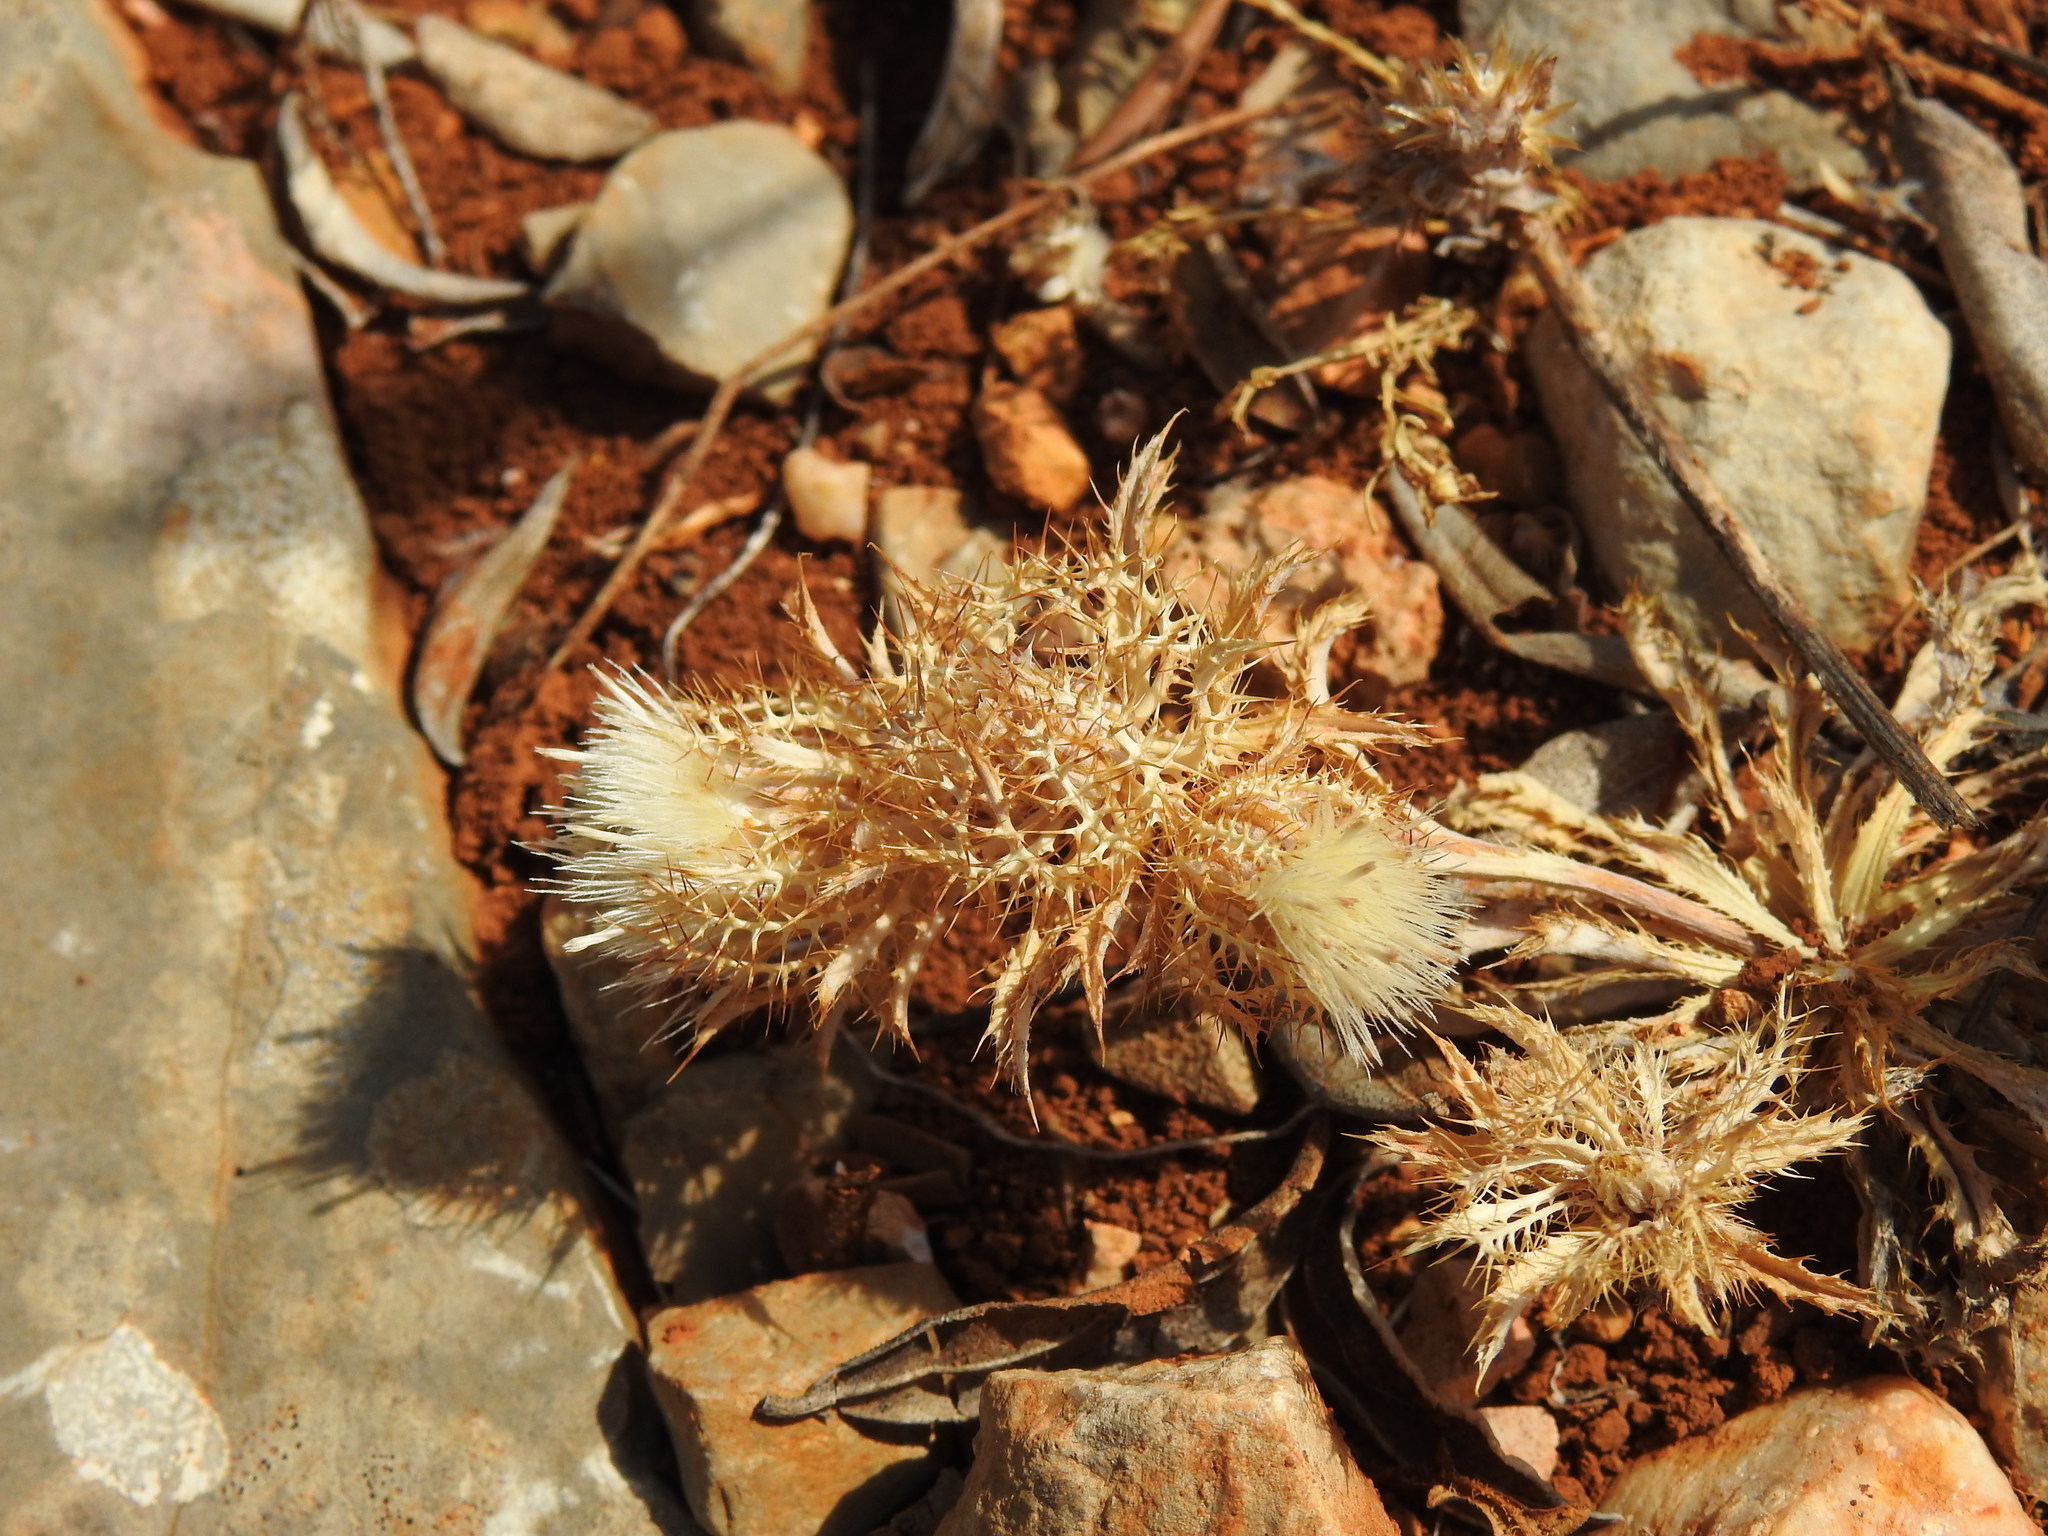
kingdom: Plantae
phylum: Tracheophyta
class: Magnoliopsida
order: Asterales
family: Asteraceae
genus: Atractylis
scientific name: Atractylis cancellata
